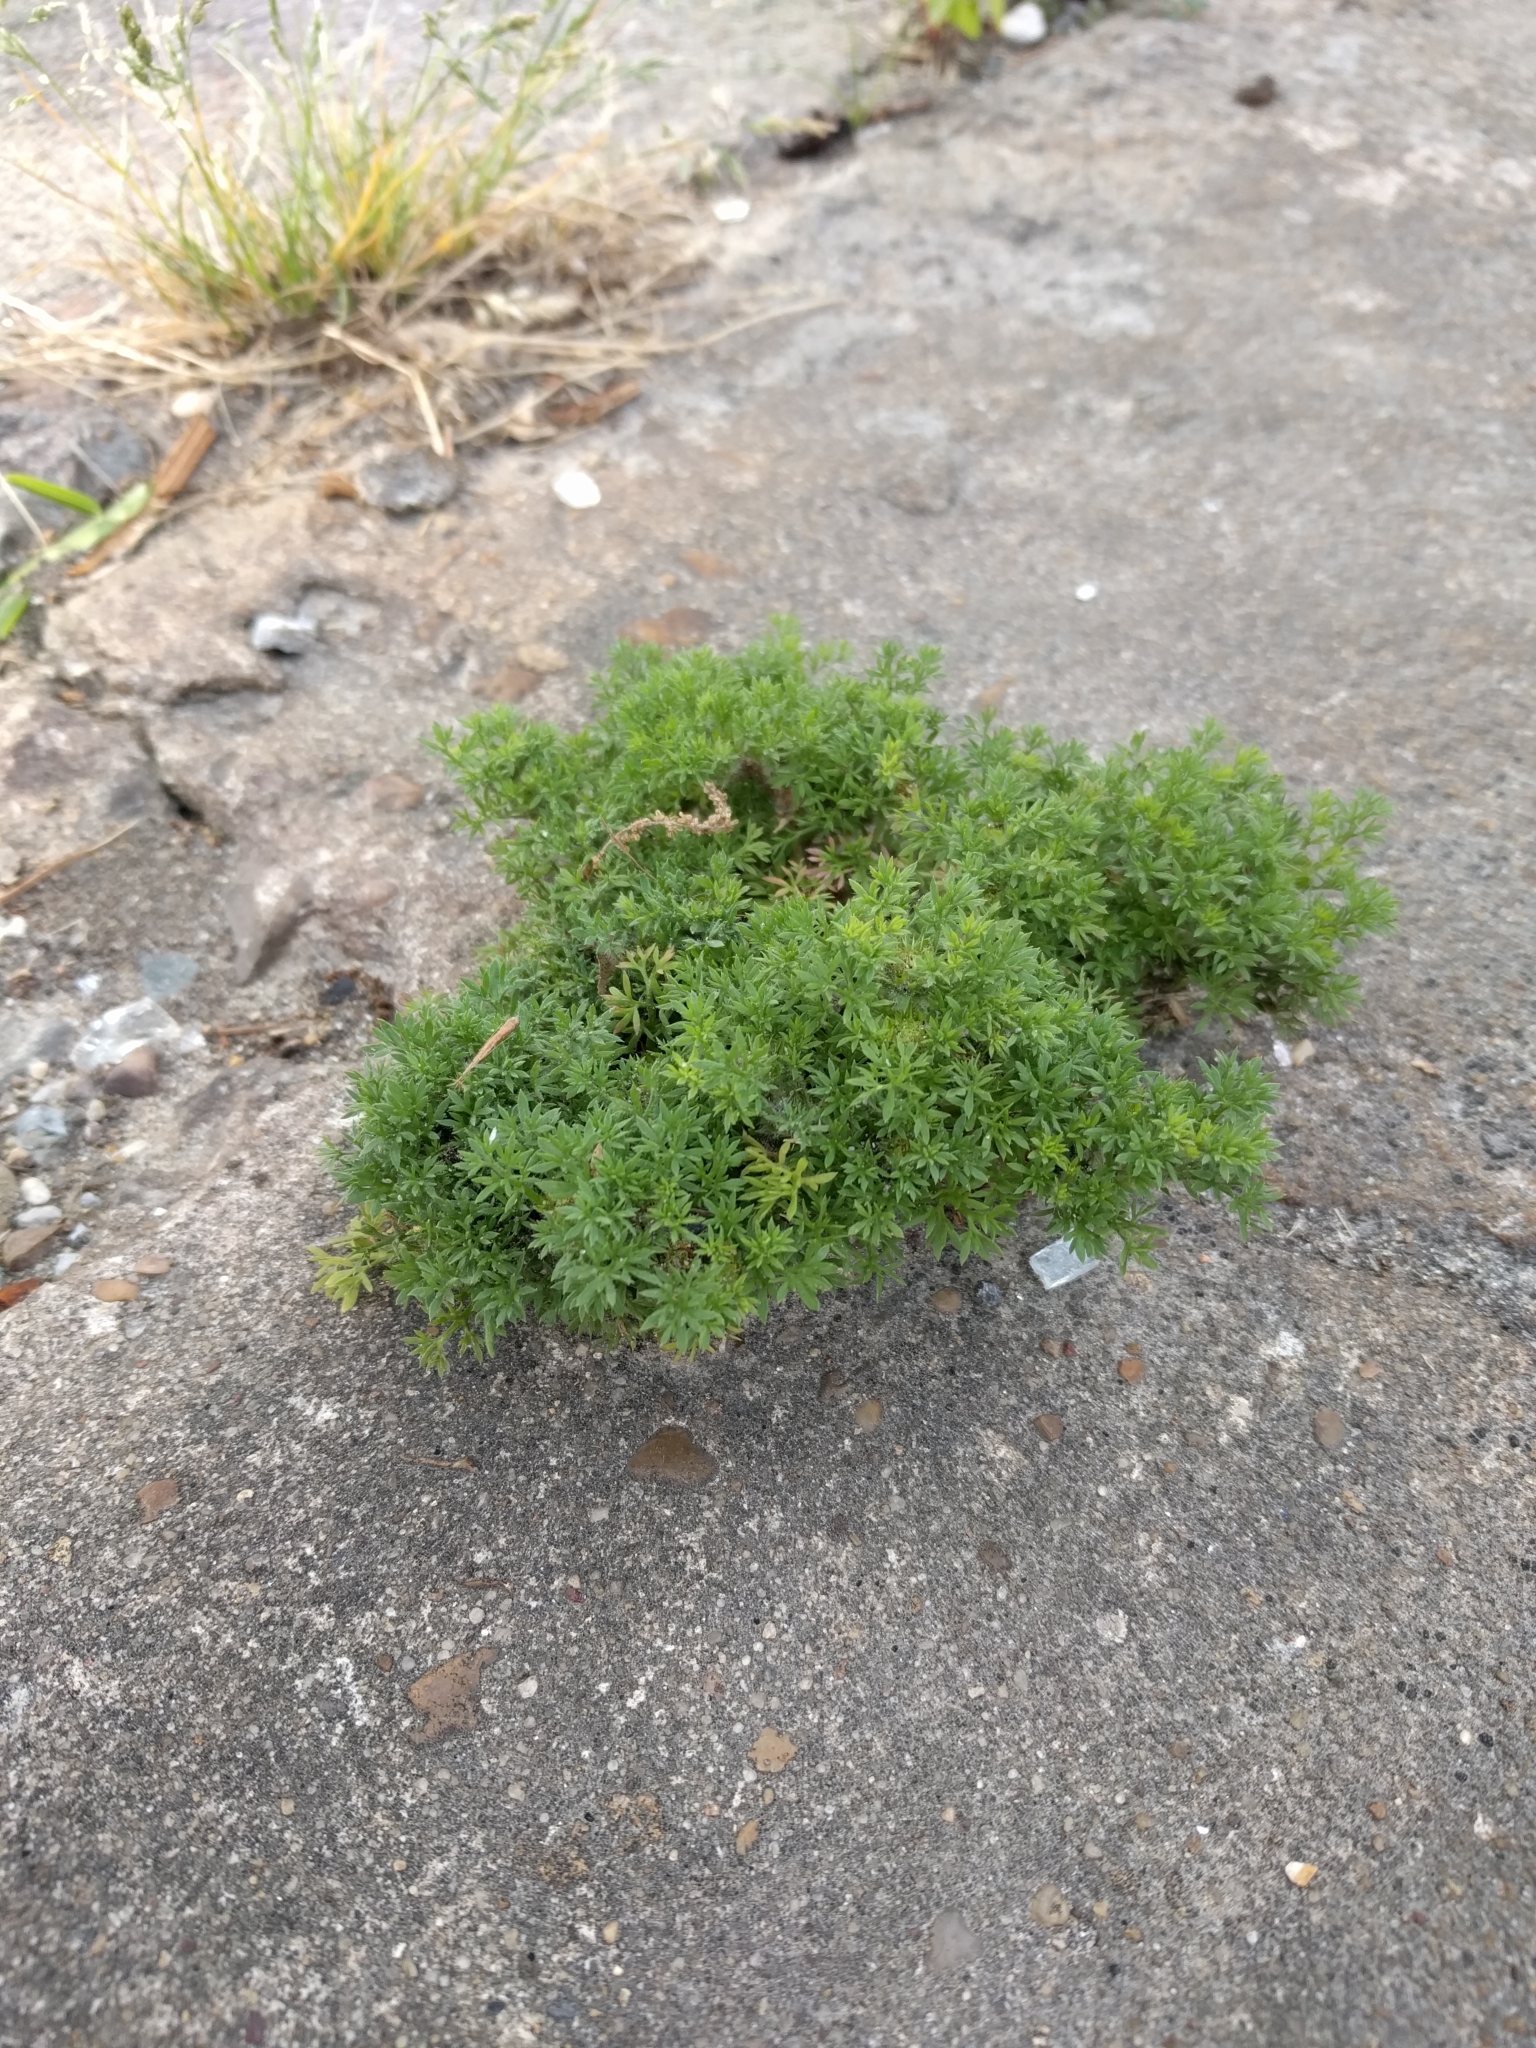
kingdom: Plantae
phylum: Tracheophyta
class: Magnoliopsida
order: Asterales
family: Asteraceae
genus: Soliva
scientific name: Soliva sessilis
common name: Field burrweed
